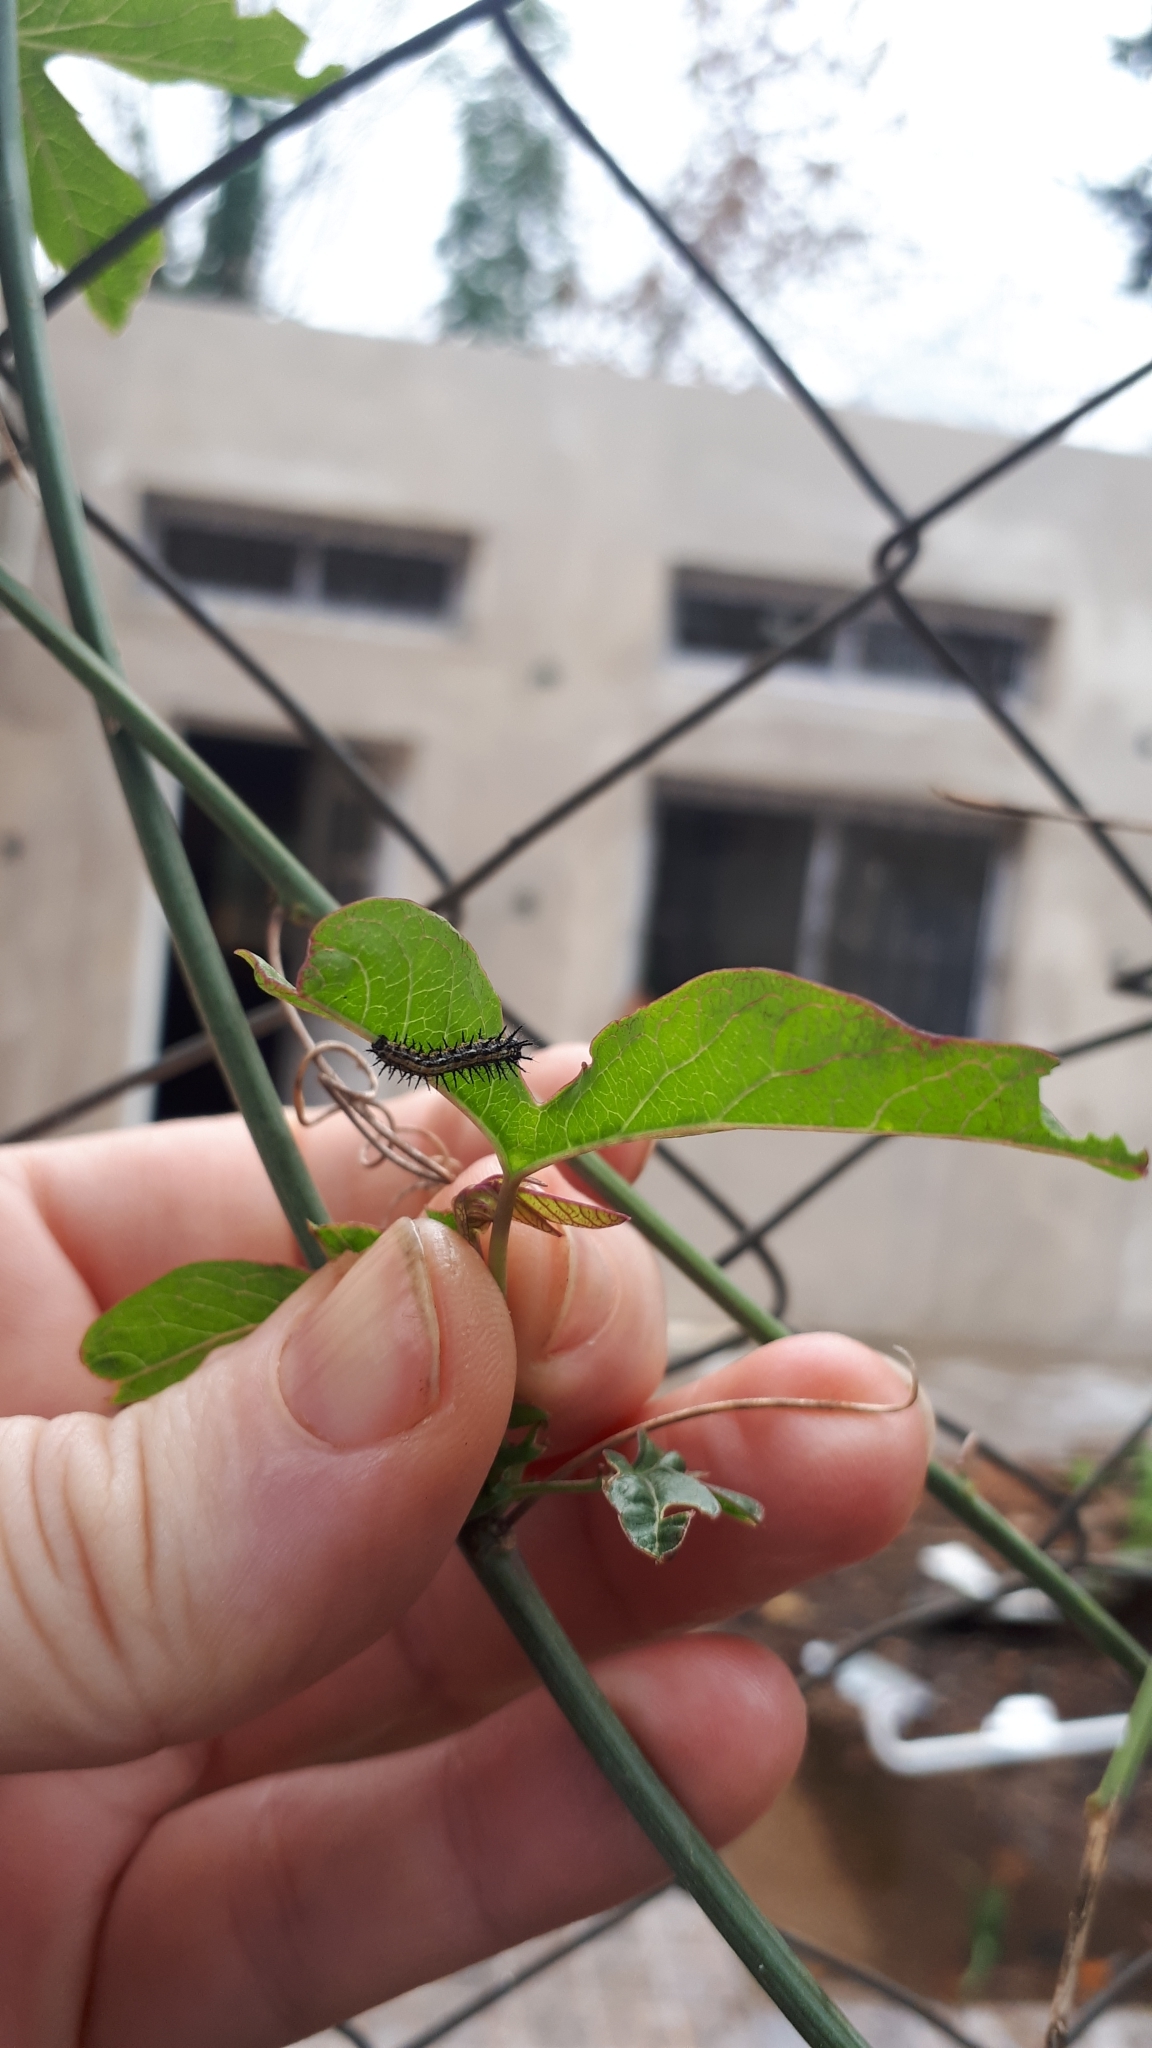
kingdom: Animalia
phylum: Arthropoda
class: Insecta
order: Lepidoptera
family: Nymphalidae
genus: Dione
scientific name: Dione vanillae
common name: Gulf fritillary
